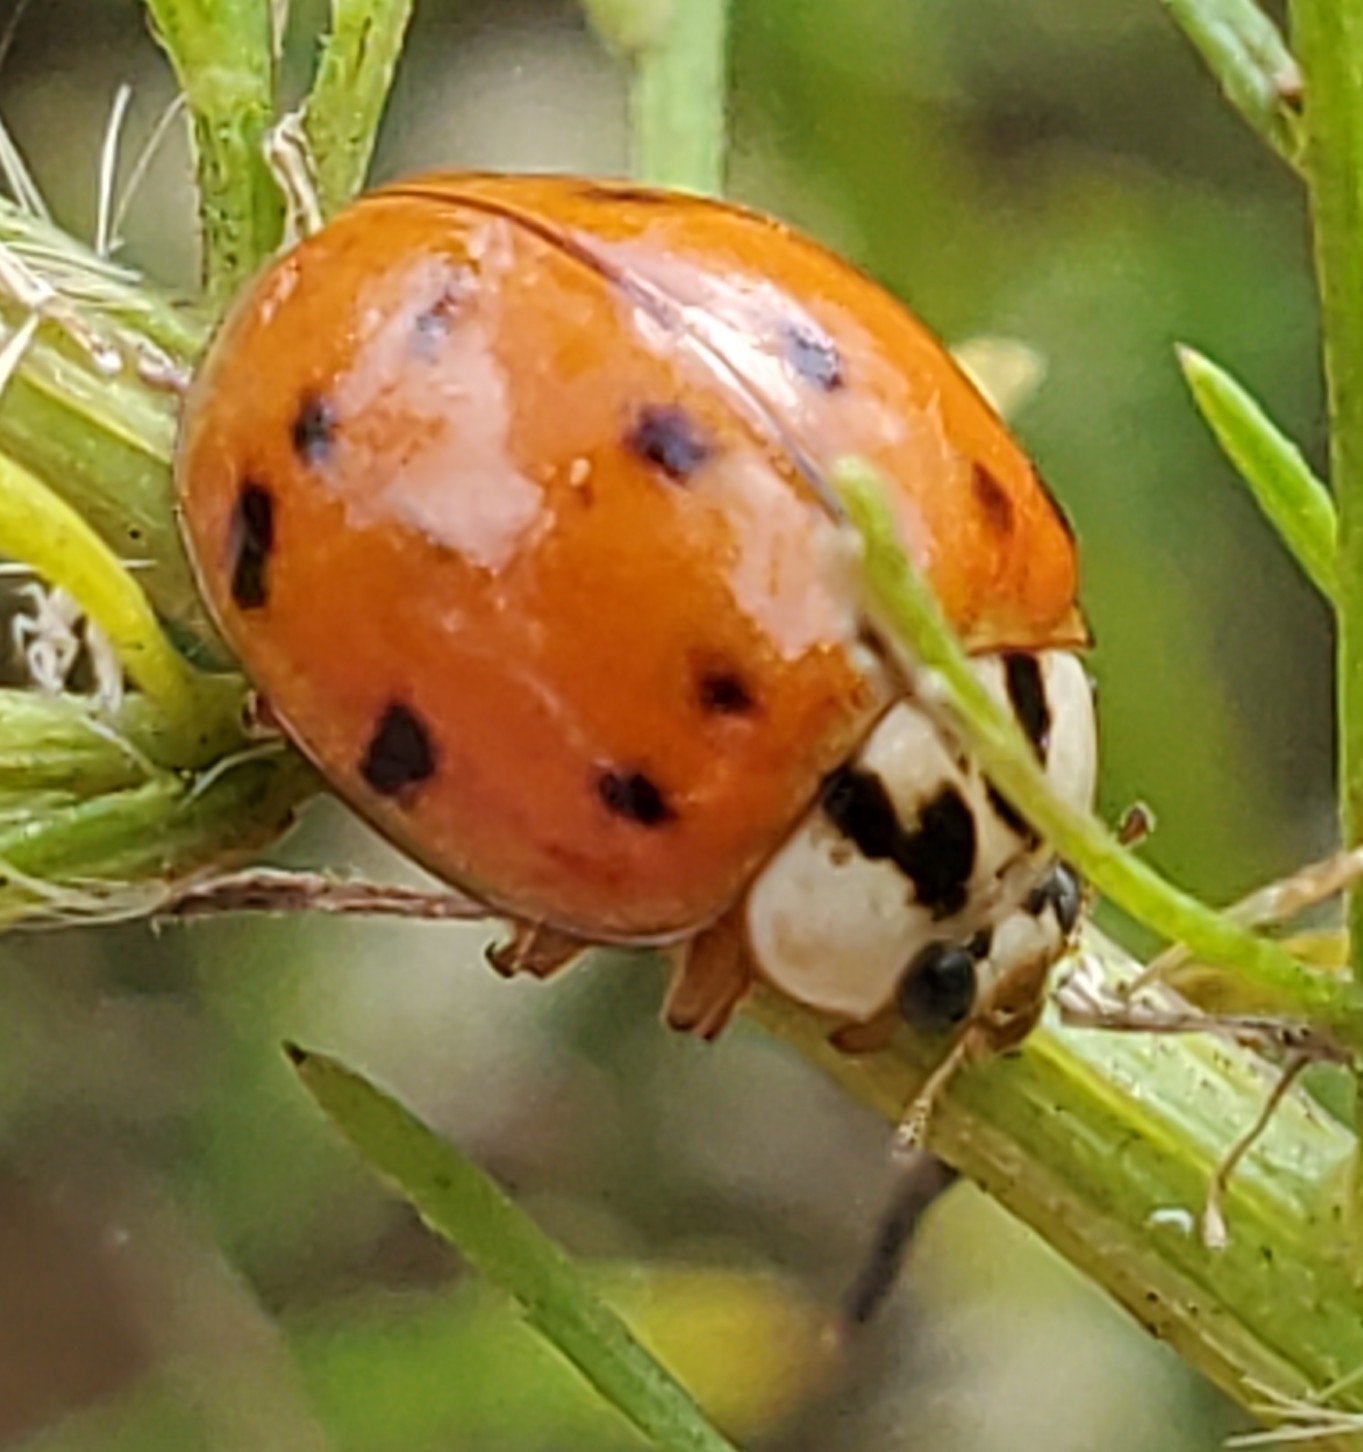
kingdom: Animalia
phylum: Arthropoda
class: Insecta
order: Coleoptera
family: Coccinellidae
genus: Harmonia
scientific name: Harmonia axyridis
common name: Harlequin ladybird
